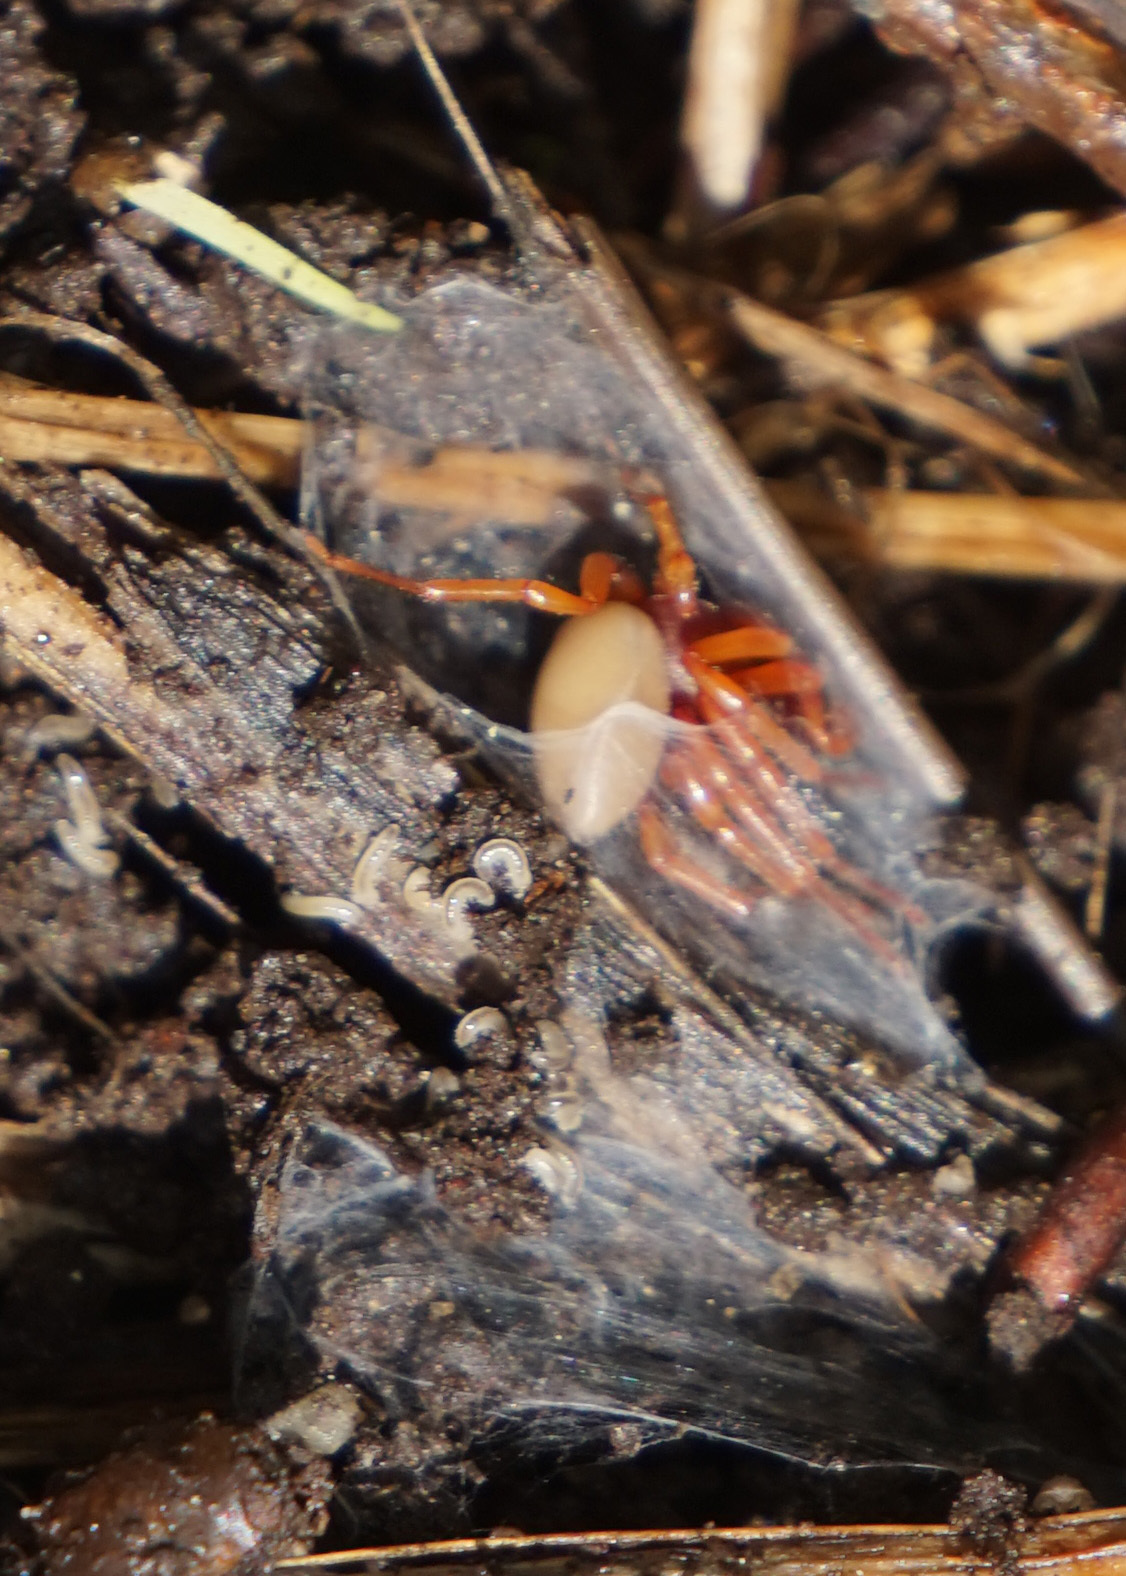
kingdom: Animalia
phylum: Arthropoda
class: Arachnida
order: Araneae
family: Dysderidae
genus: Dysdera
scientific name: Dysdera crocata
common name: Woodlouse spider
